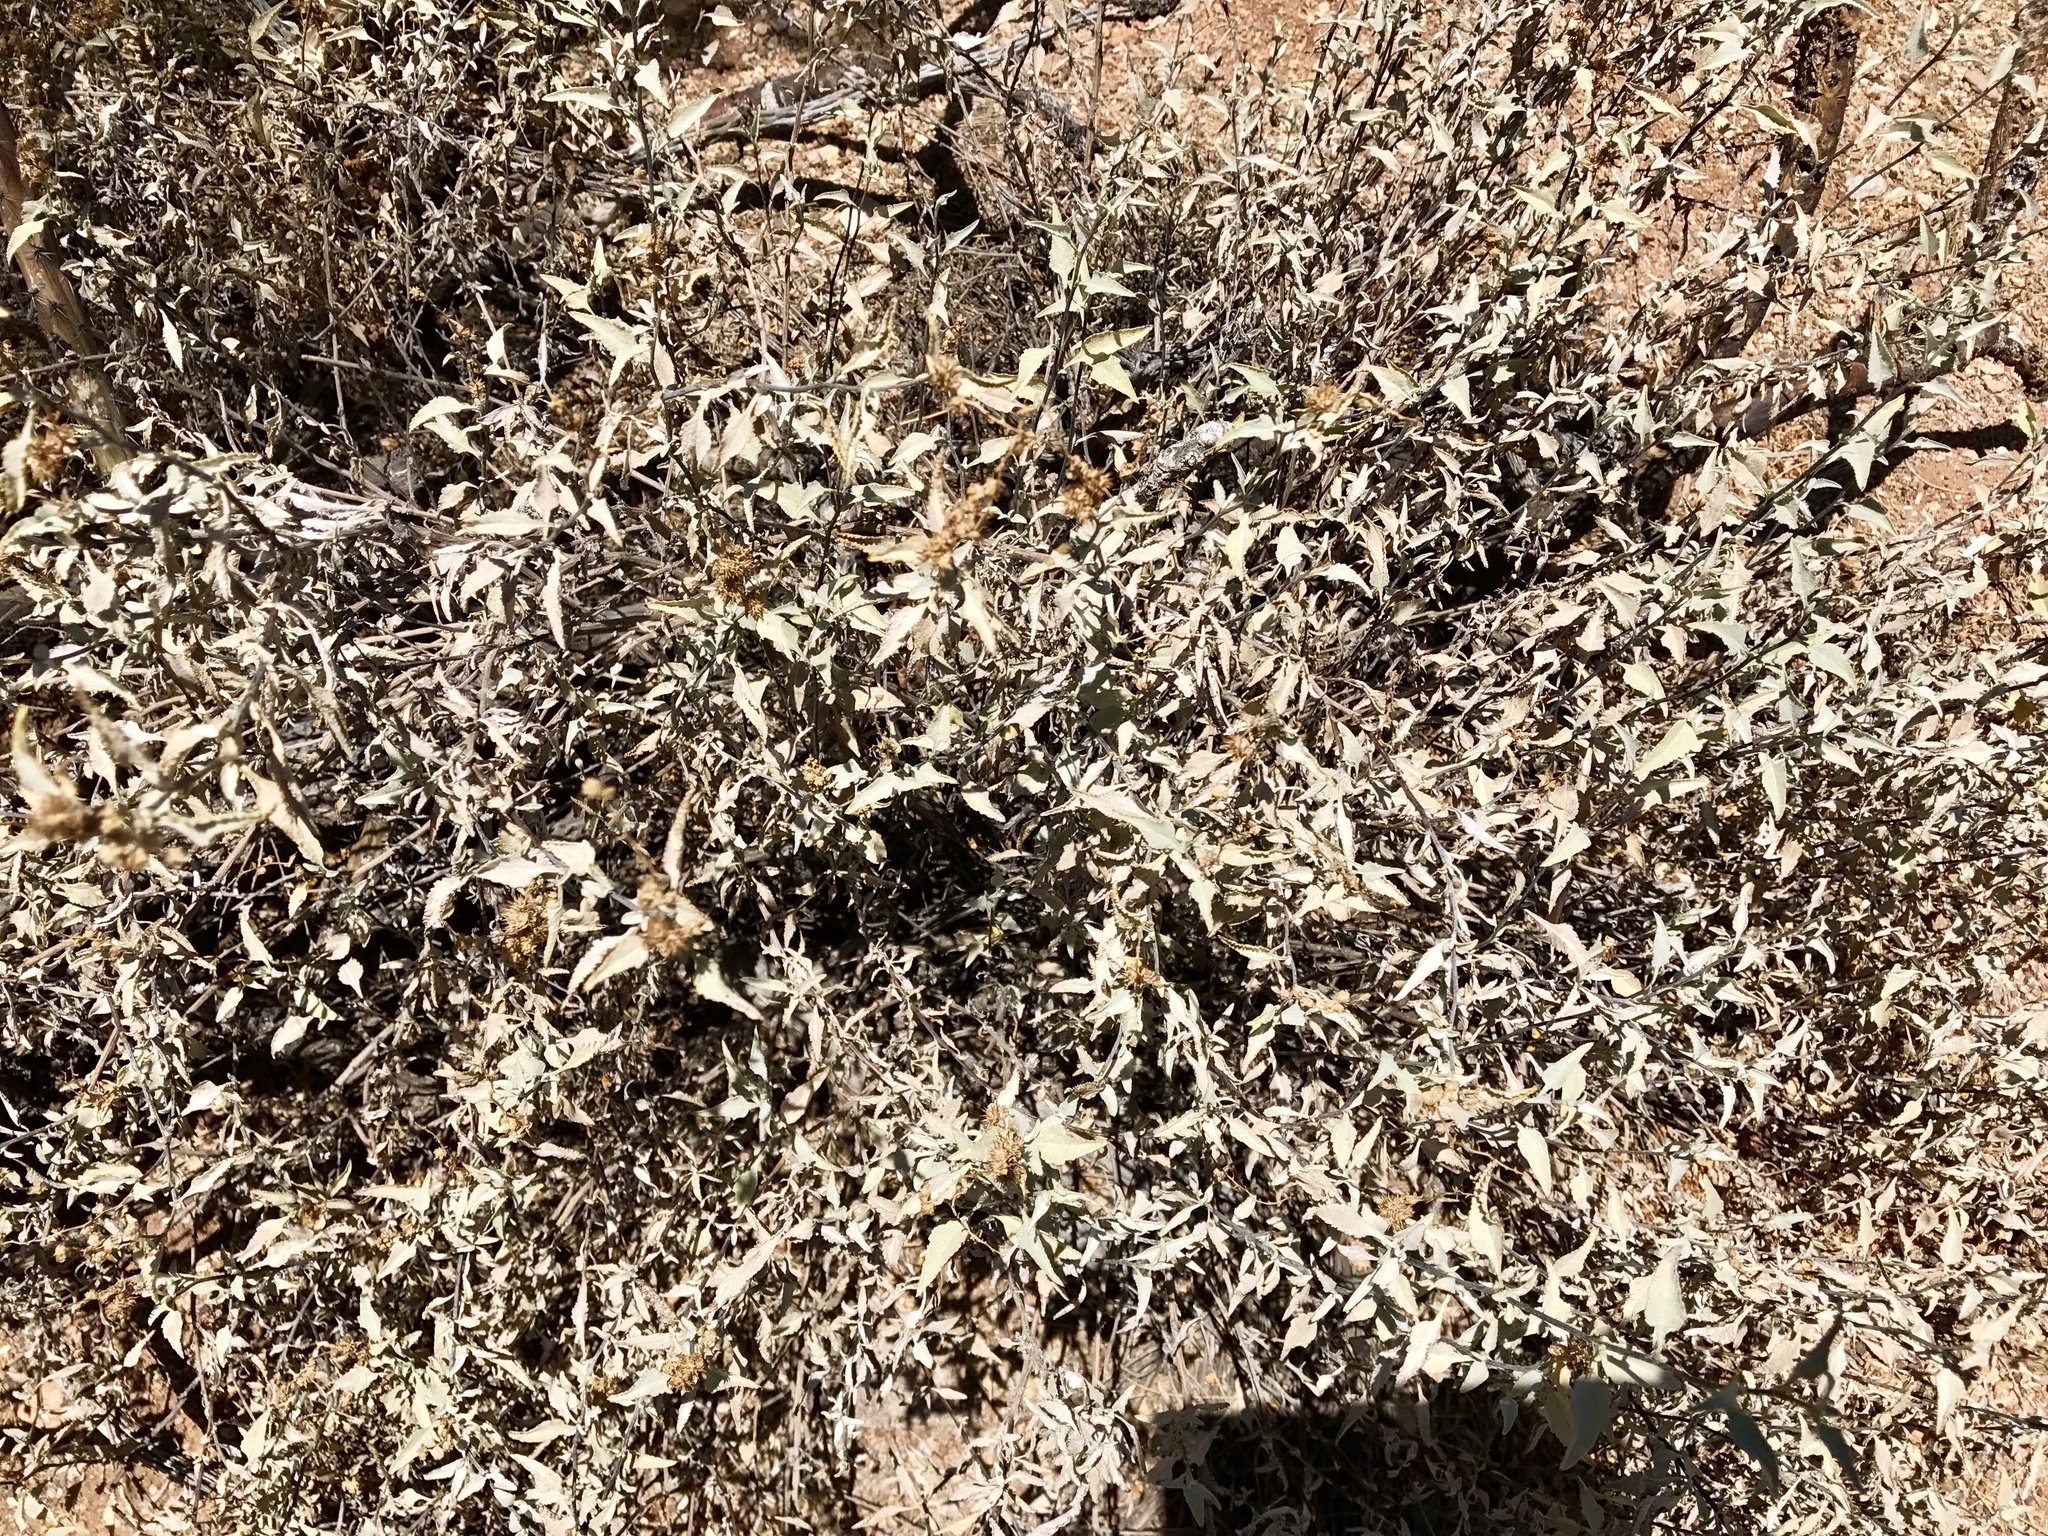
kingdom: Plantae
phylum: Tracheophyta
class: Magnoliopsida
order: Asterales
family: Asteraceae
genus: Ambrosia
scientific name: Ambrosia deltoidea
